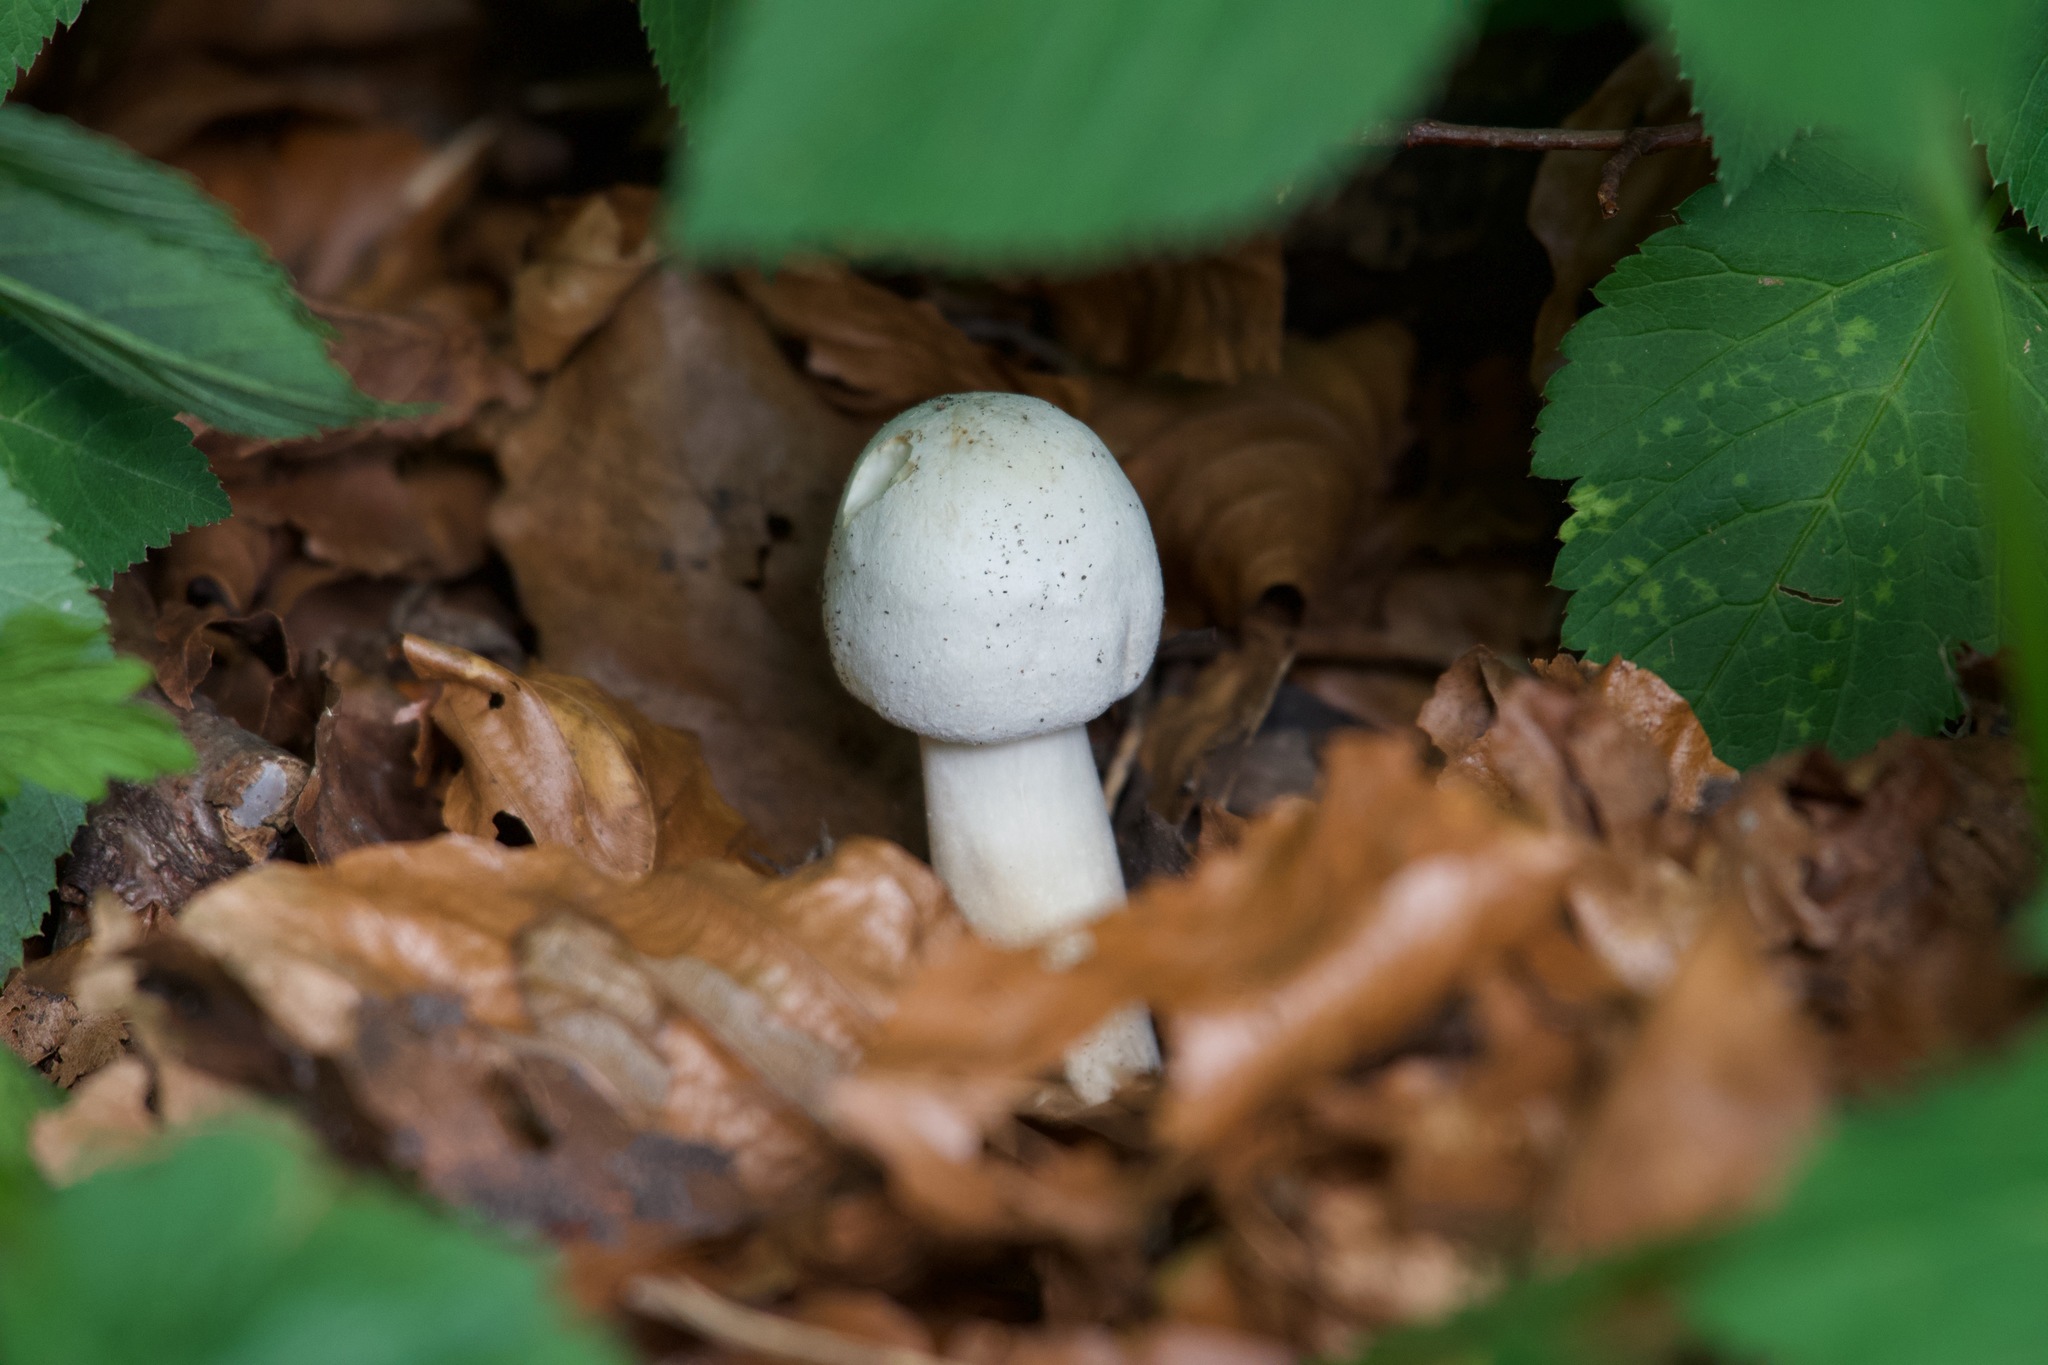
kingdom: Fungi
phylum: Basidiomycota
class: Agaricomycetes
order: Agaricales
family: Agaricaceae
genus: Agaricus
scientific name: Agaricus xanthodermus
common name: Yellow stainer
